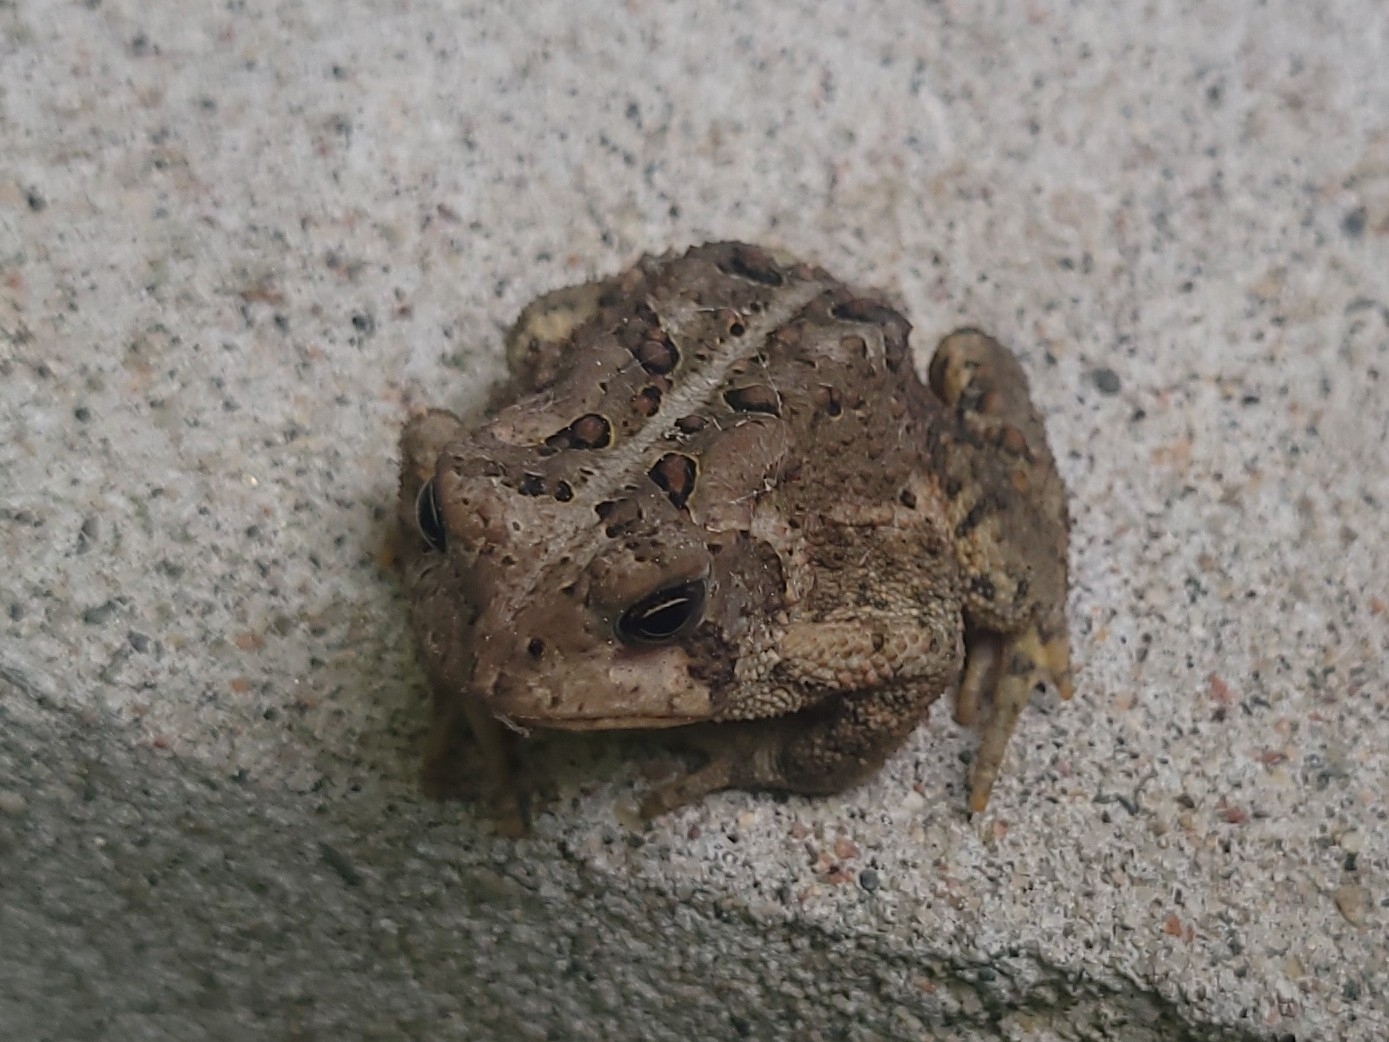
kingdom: Animalia
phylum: Chordata
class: Amphibia
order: Anura
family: Bufonidae
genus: Anaxyrus
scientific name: Anaxyrus americanus
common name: American toad
